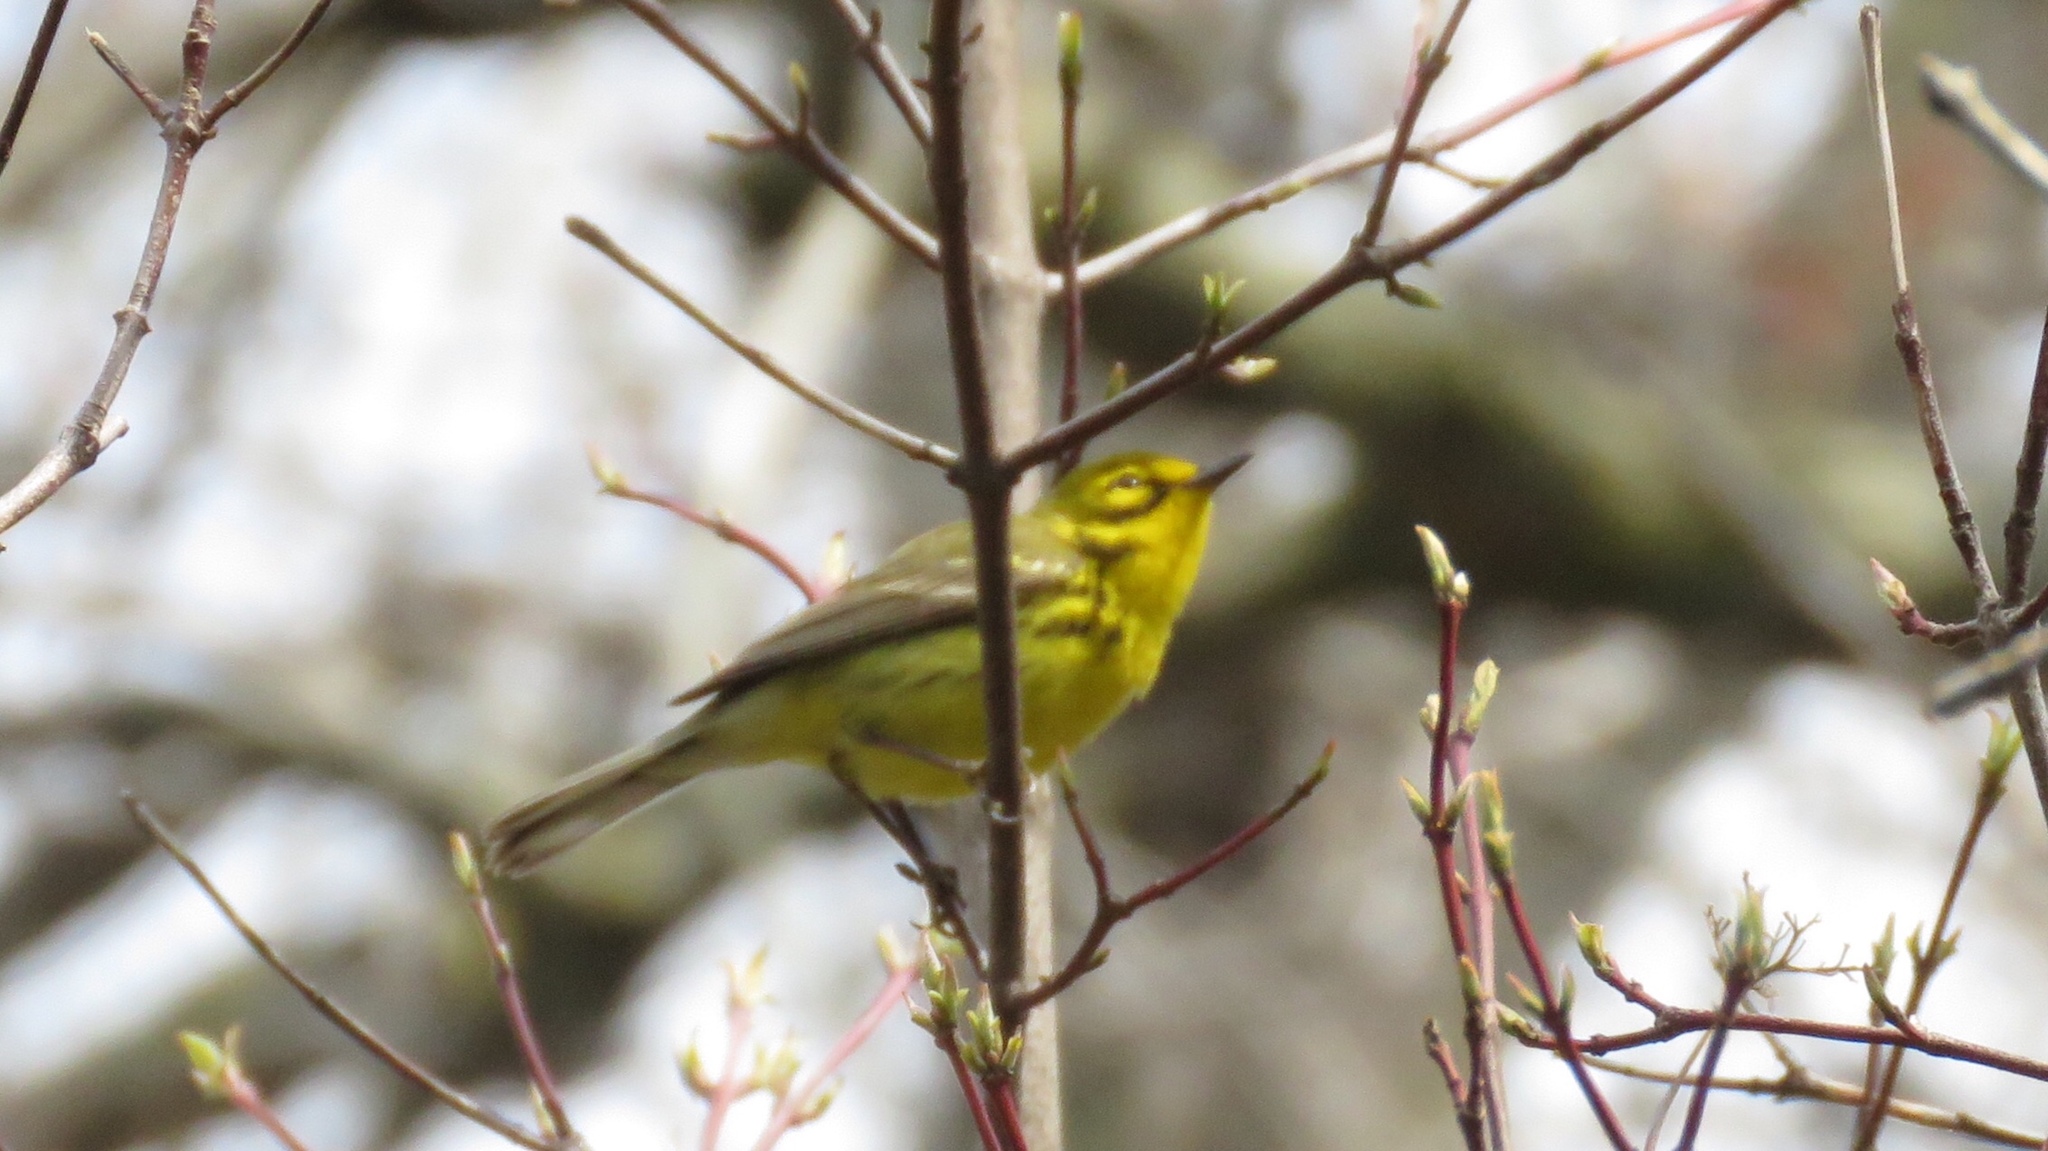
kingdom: Animalia
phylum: Chordata
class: Aves
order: Passeriformes
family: Parulidae
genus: Setophaga
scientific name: Setophaga discolor
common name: Prairie warbler
